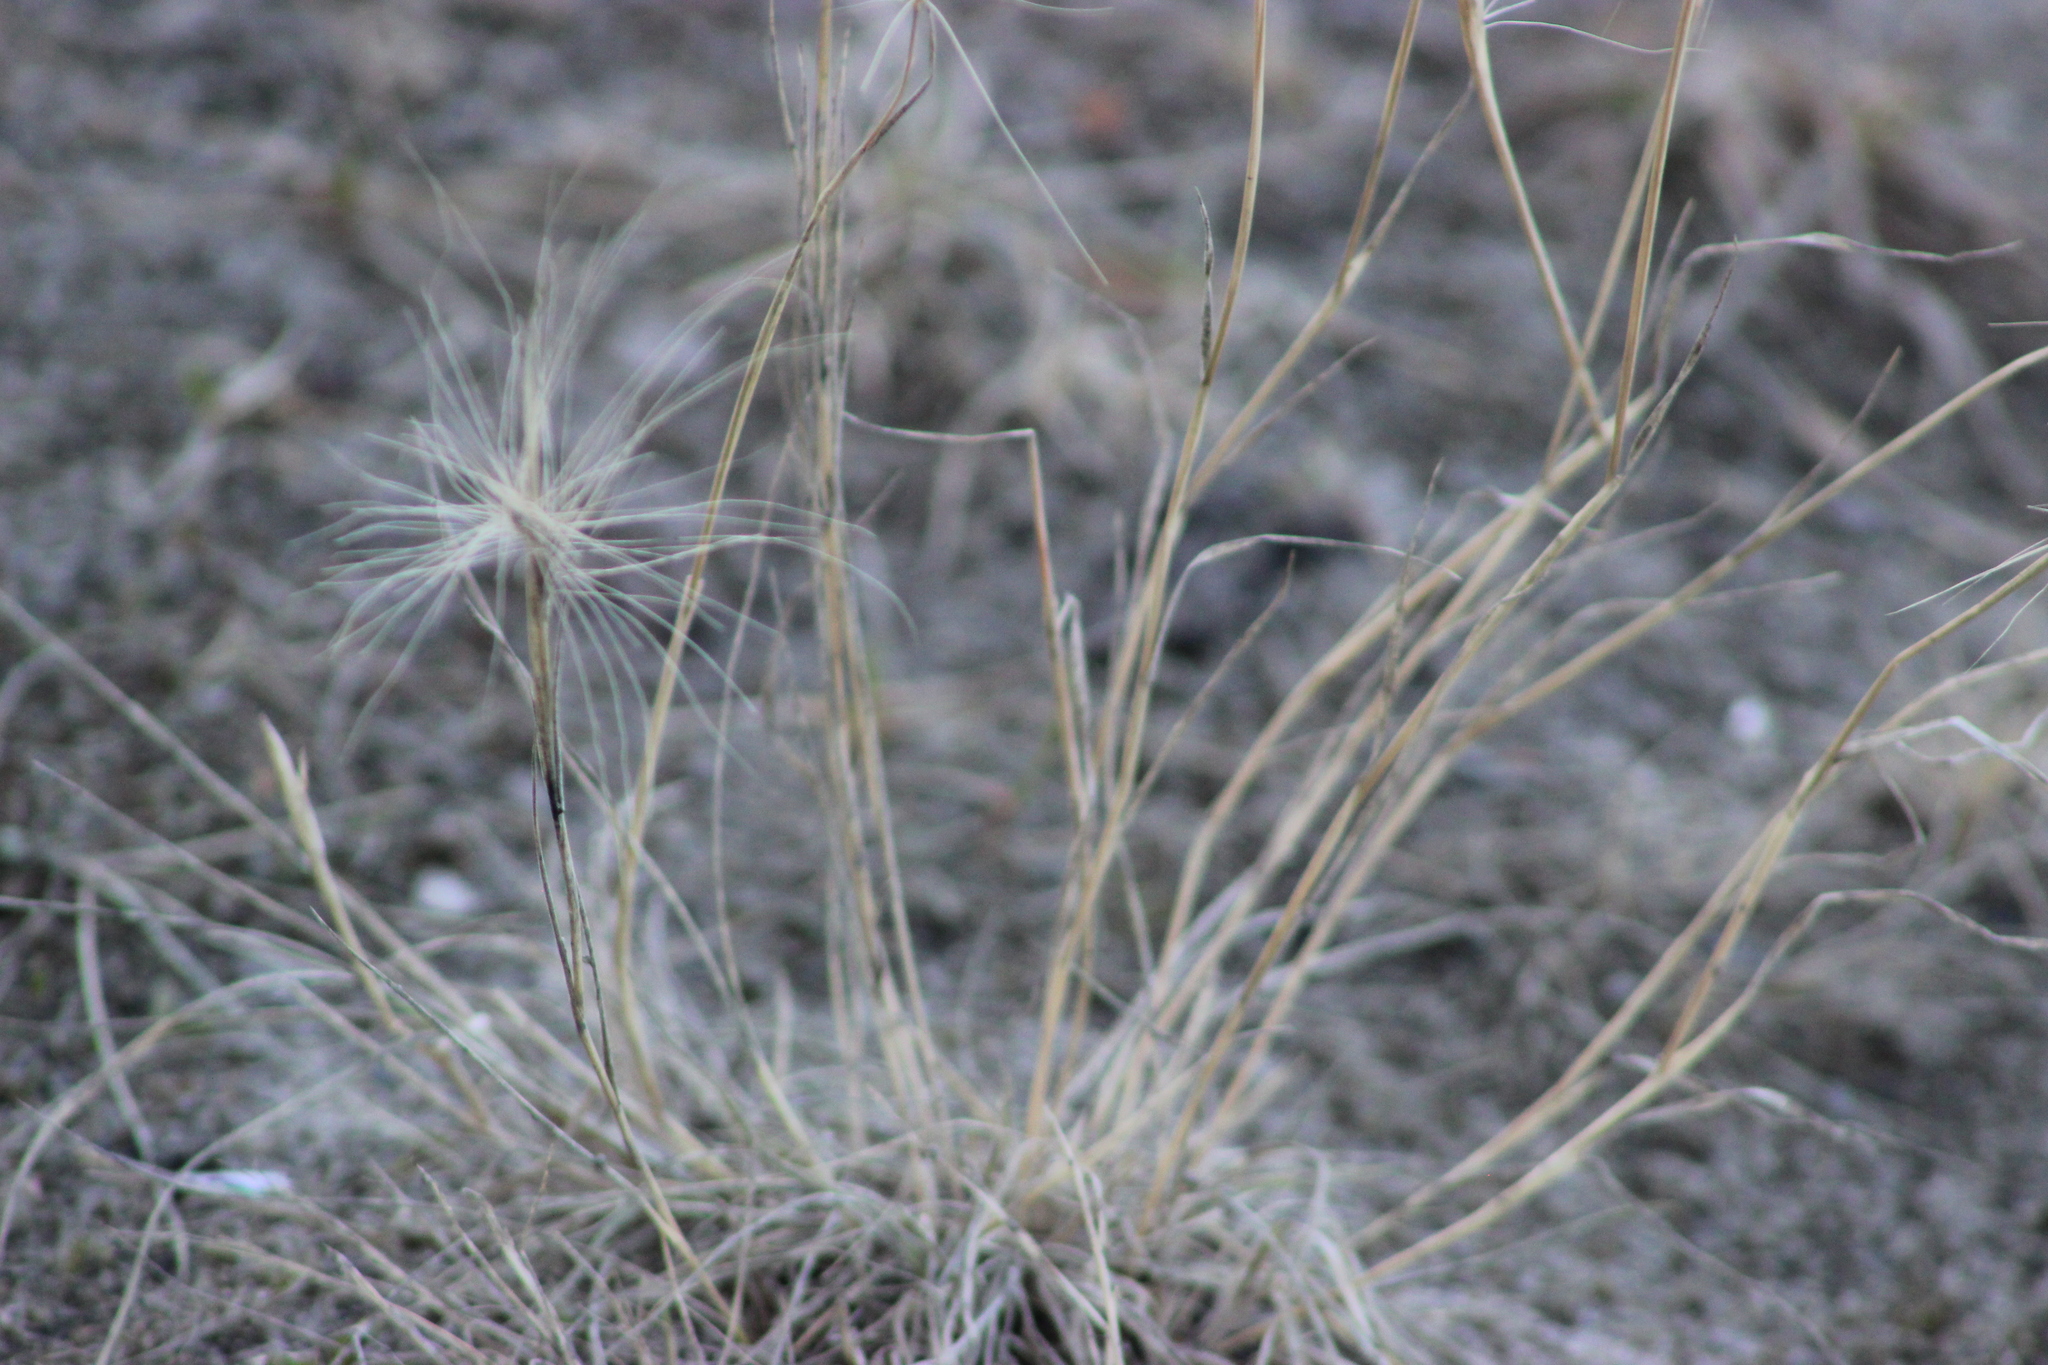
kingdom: Plantae
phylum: Tracheophyta
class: Liliopsida
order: Poales
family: Poaceae
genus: Hordeum
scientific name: Hordeum jubatum
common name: Foxtail barley
